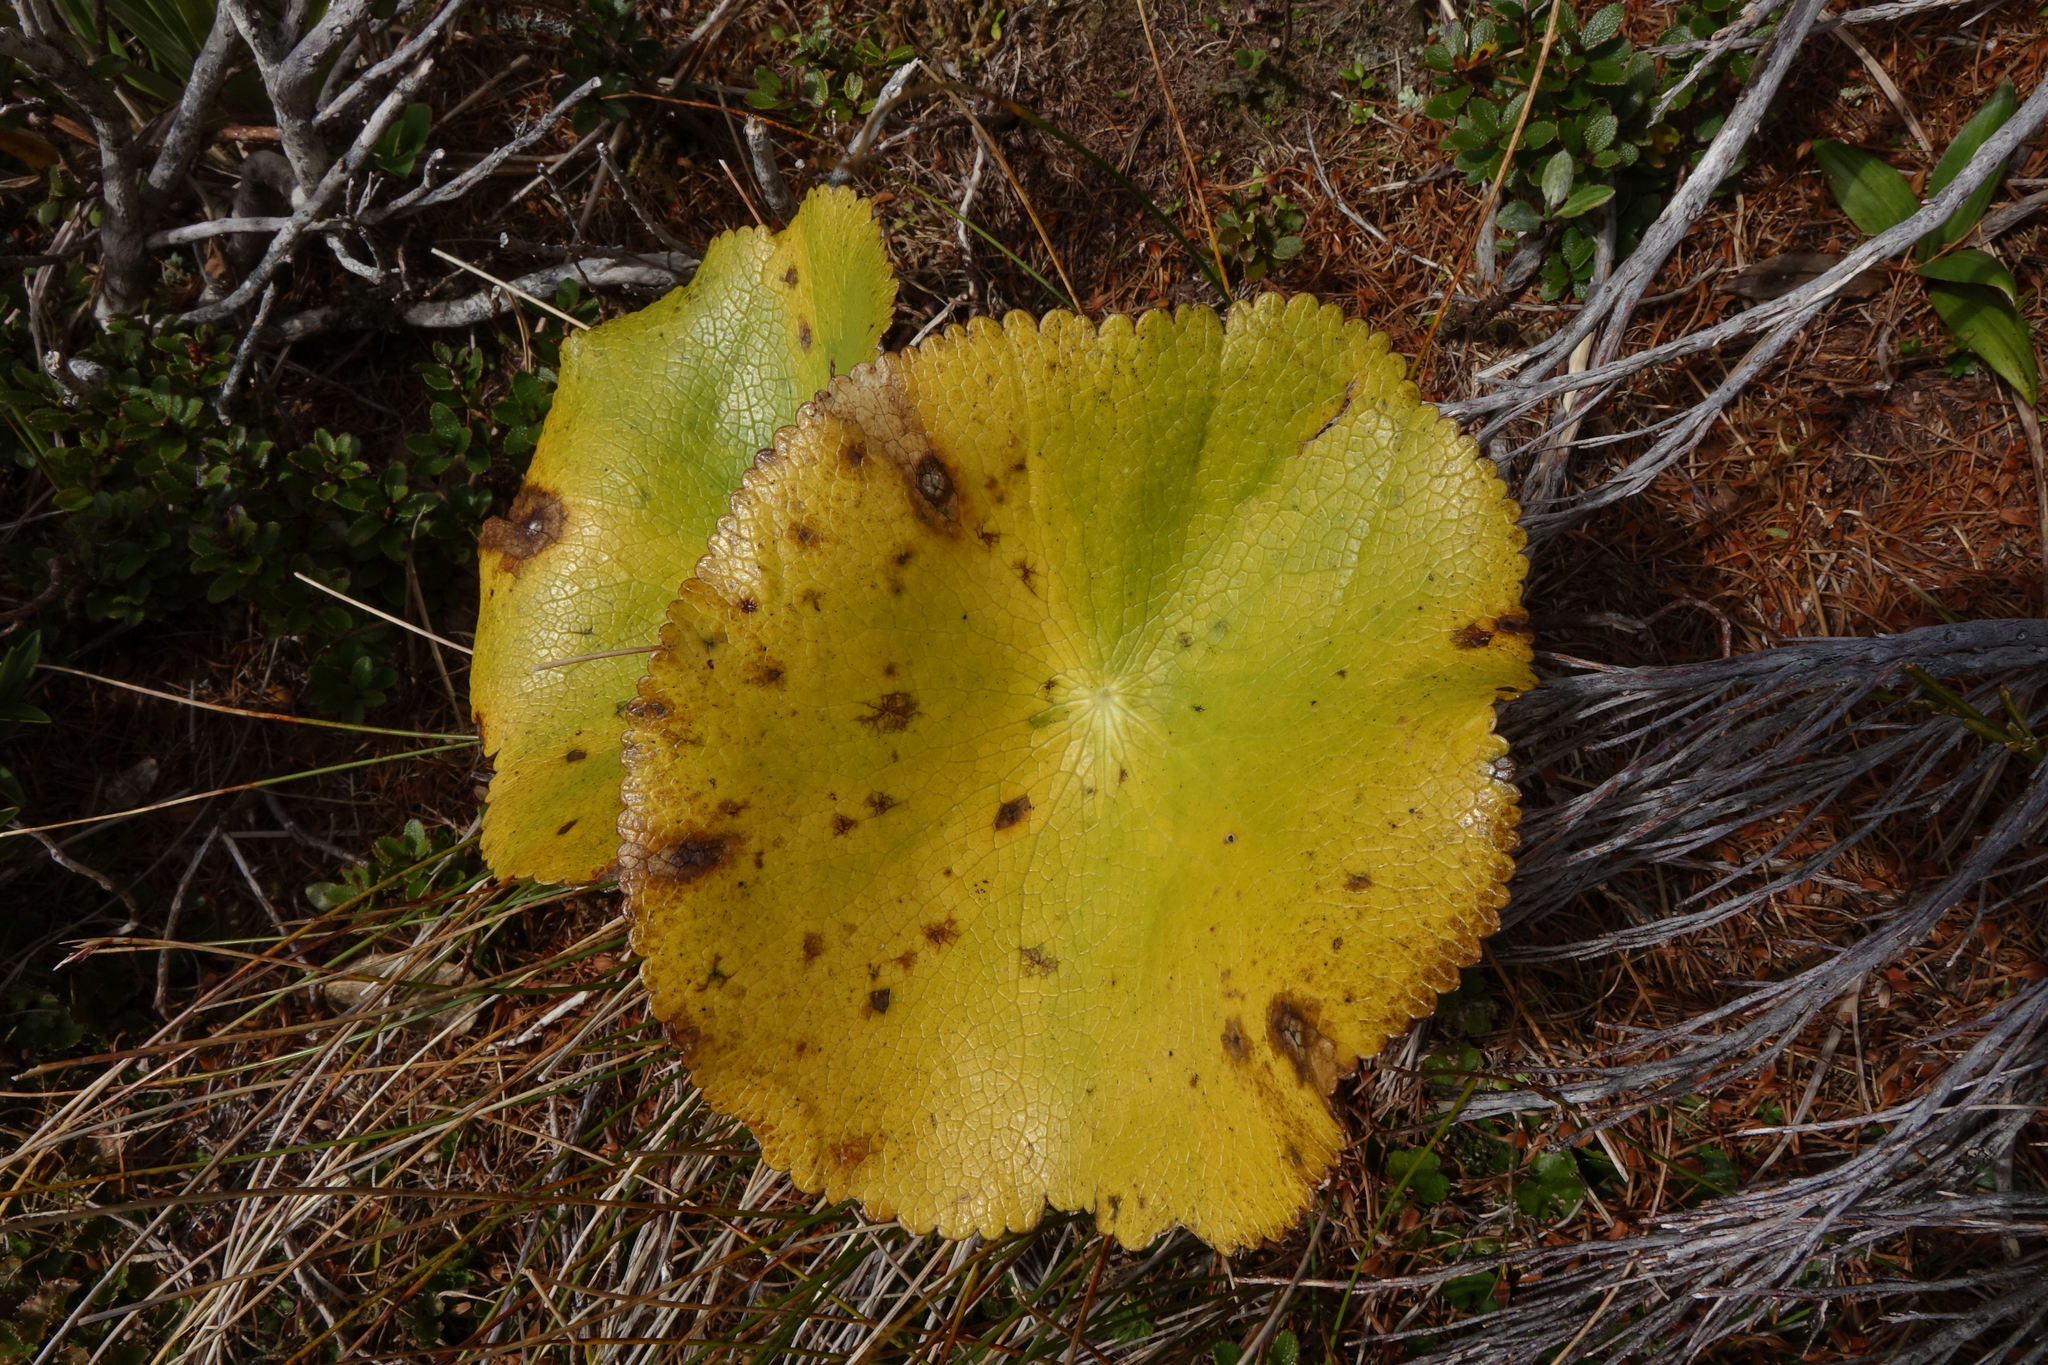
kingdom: Plantae
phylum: Tracheophyta
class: Magnoliopsida
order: Ranunculales
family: Ranunculaceae
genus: Ranunculus
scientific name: Ranunculus lyallii
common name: Mountain-lily
